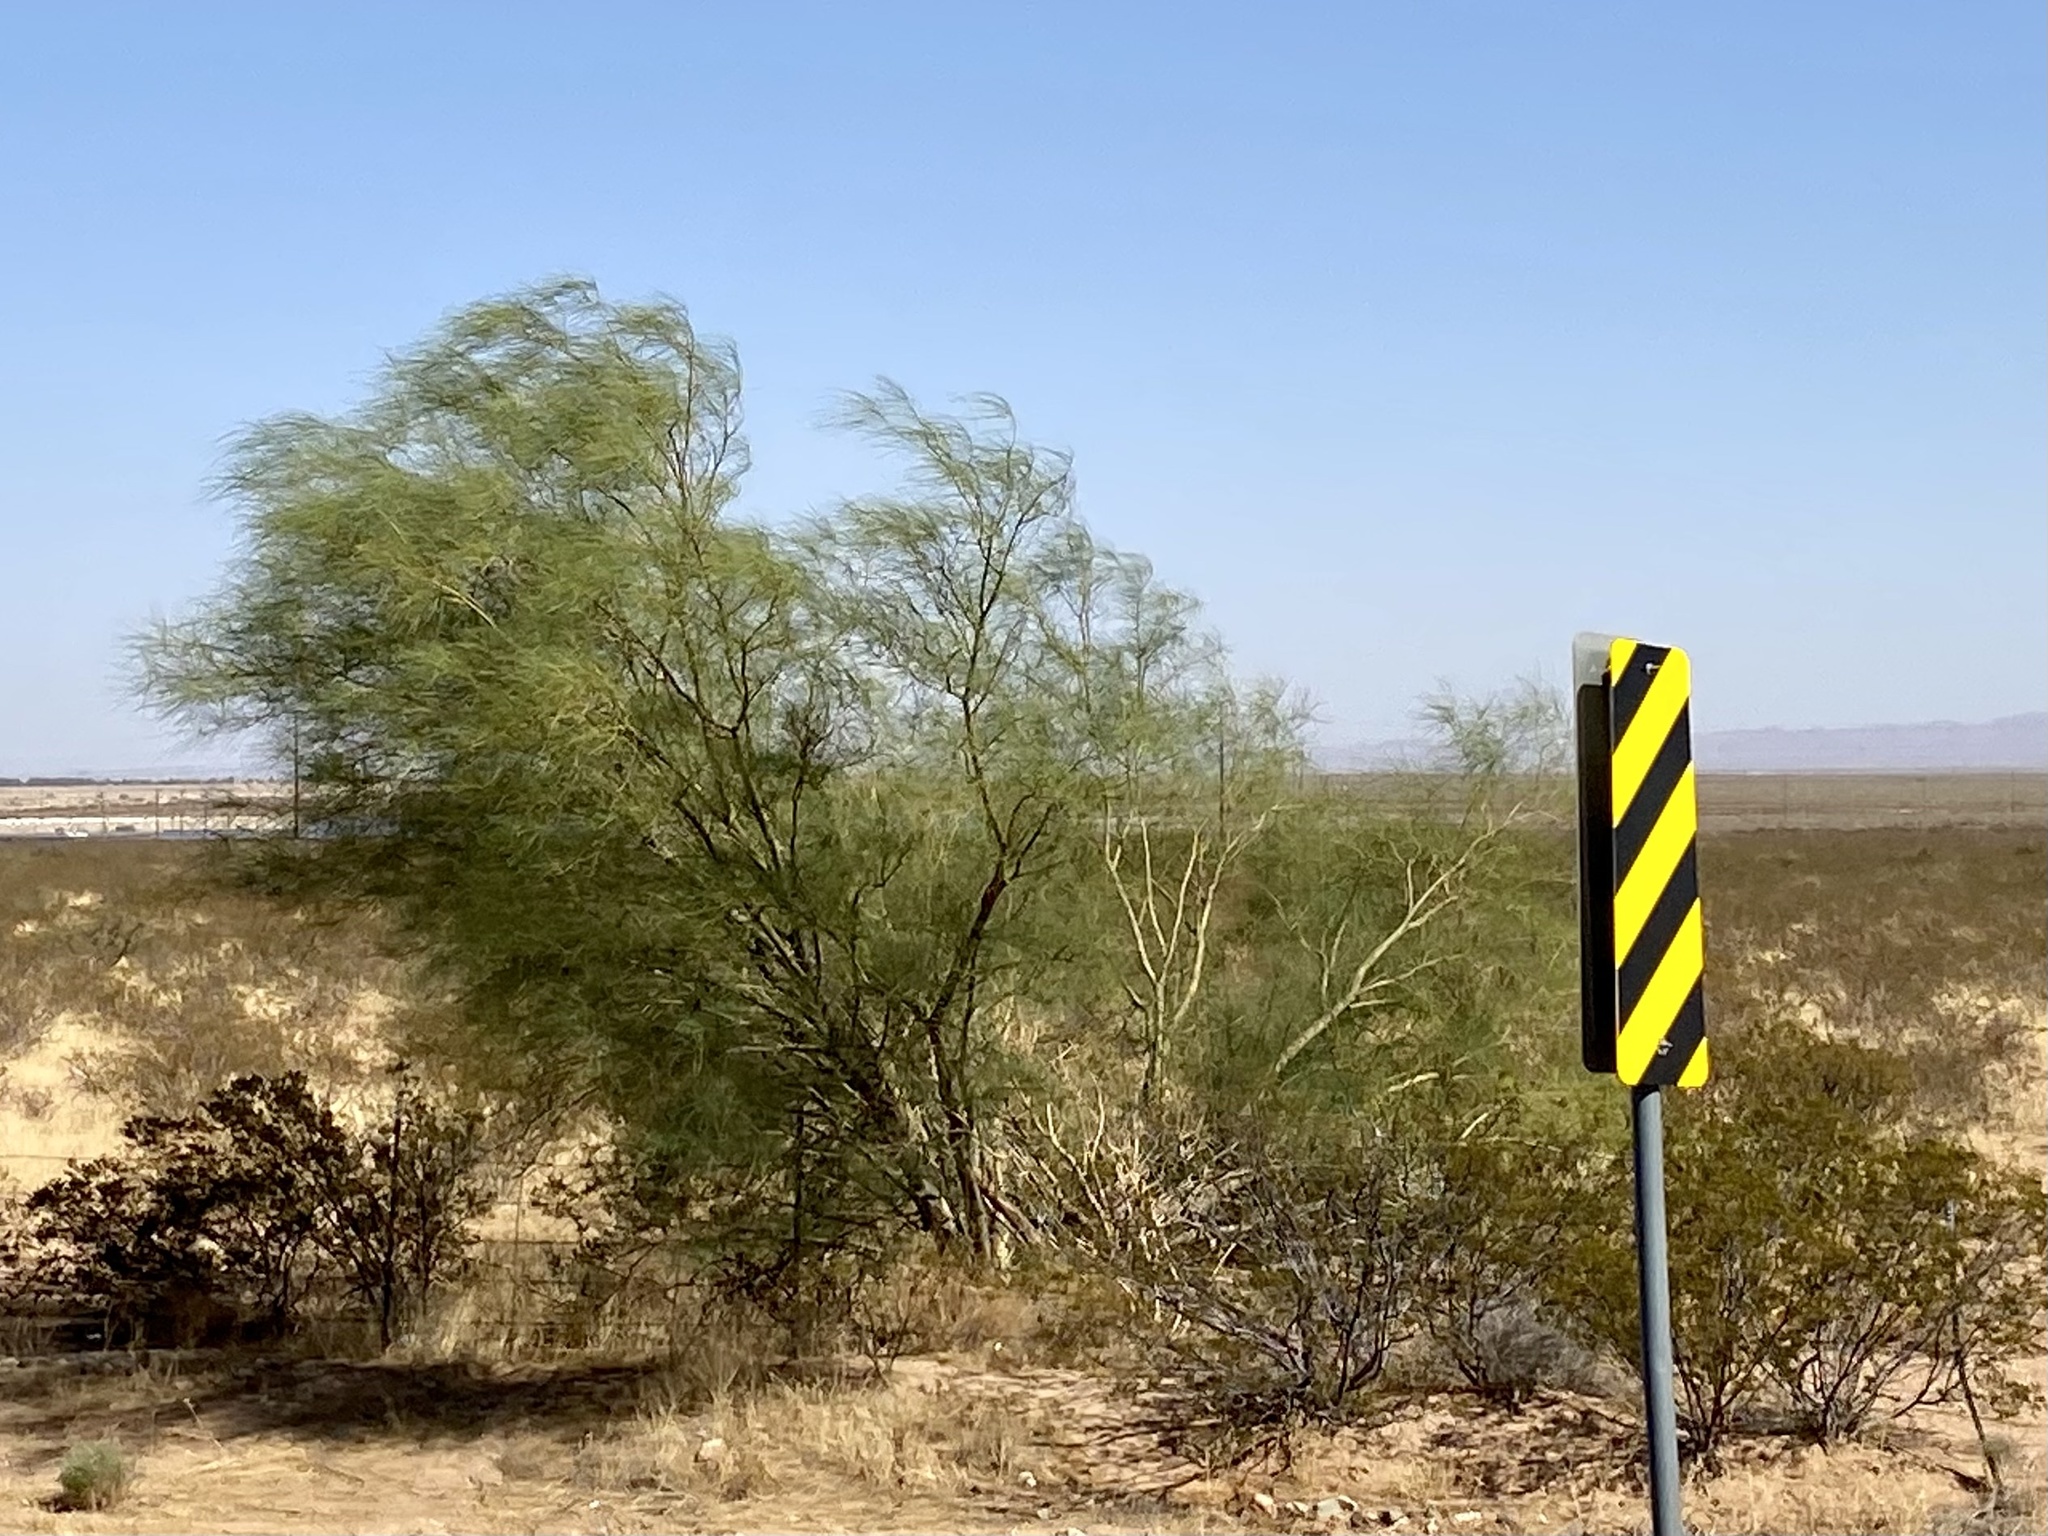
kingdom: Plantae
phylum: Tracheophyta
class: Magnoliopsida
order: Fabales
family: Fabaceae
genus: Parkinsonia
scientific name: Parkinsonia aculeata
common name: Jerusalem thorn
